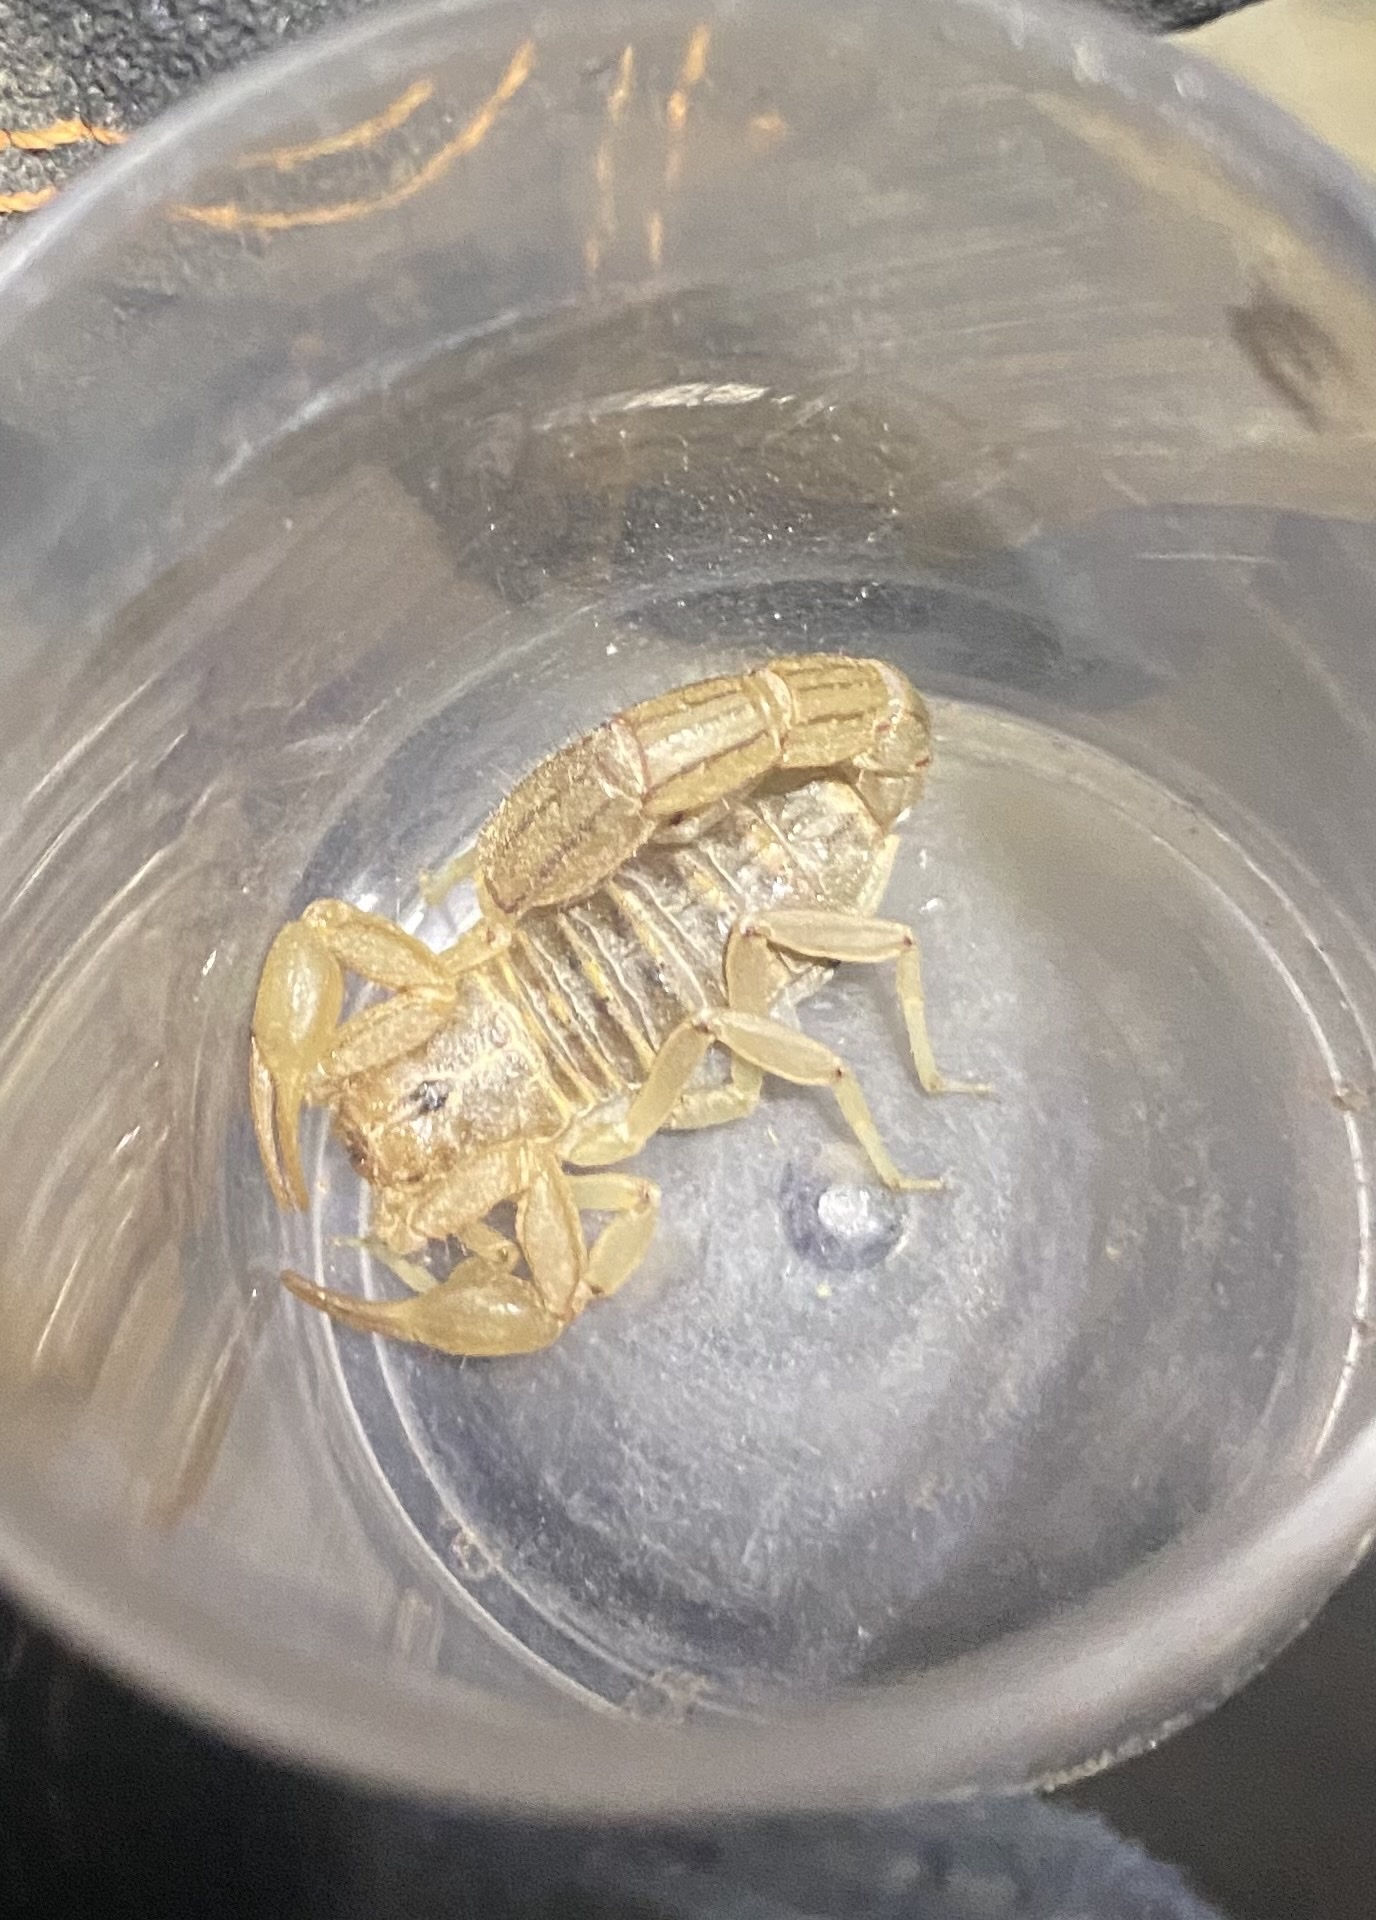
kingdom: Animalia
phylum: Arthropoda
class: Arachnida
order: Scorpiones
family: Vaejovidae
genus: Paravaejovis
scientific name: Paravaejovis spinigerus
